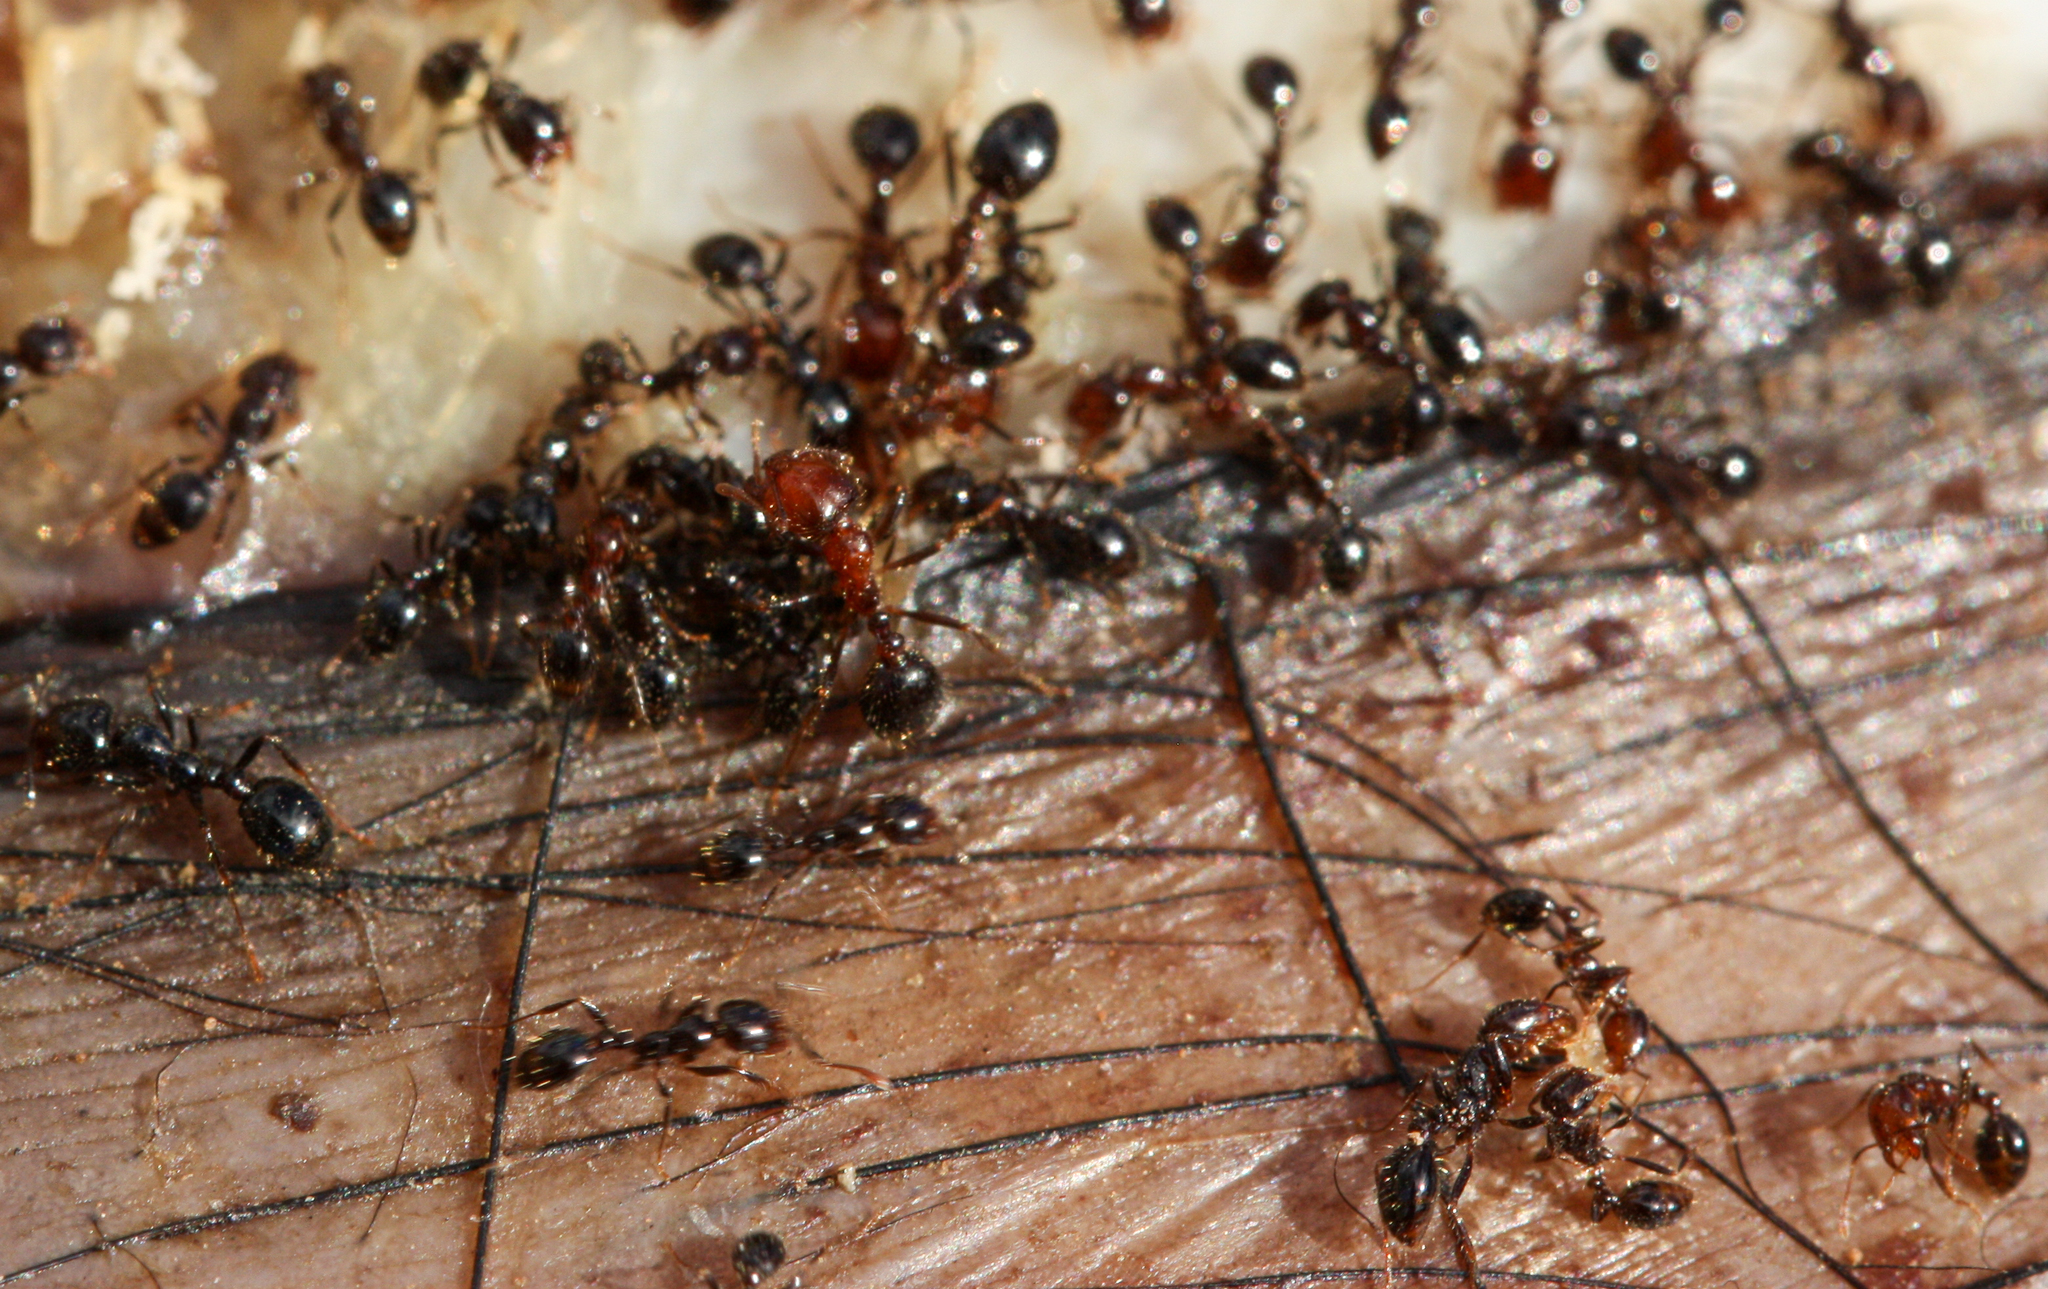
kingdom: Animalia
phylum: Arthropoda
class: Insecta
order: Hymenoptera
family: Formicidae
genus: Solenopsis
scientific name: Solenopsis xyloni
